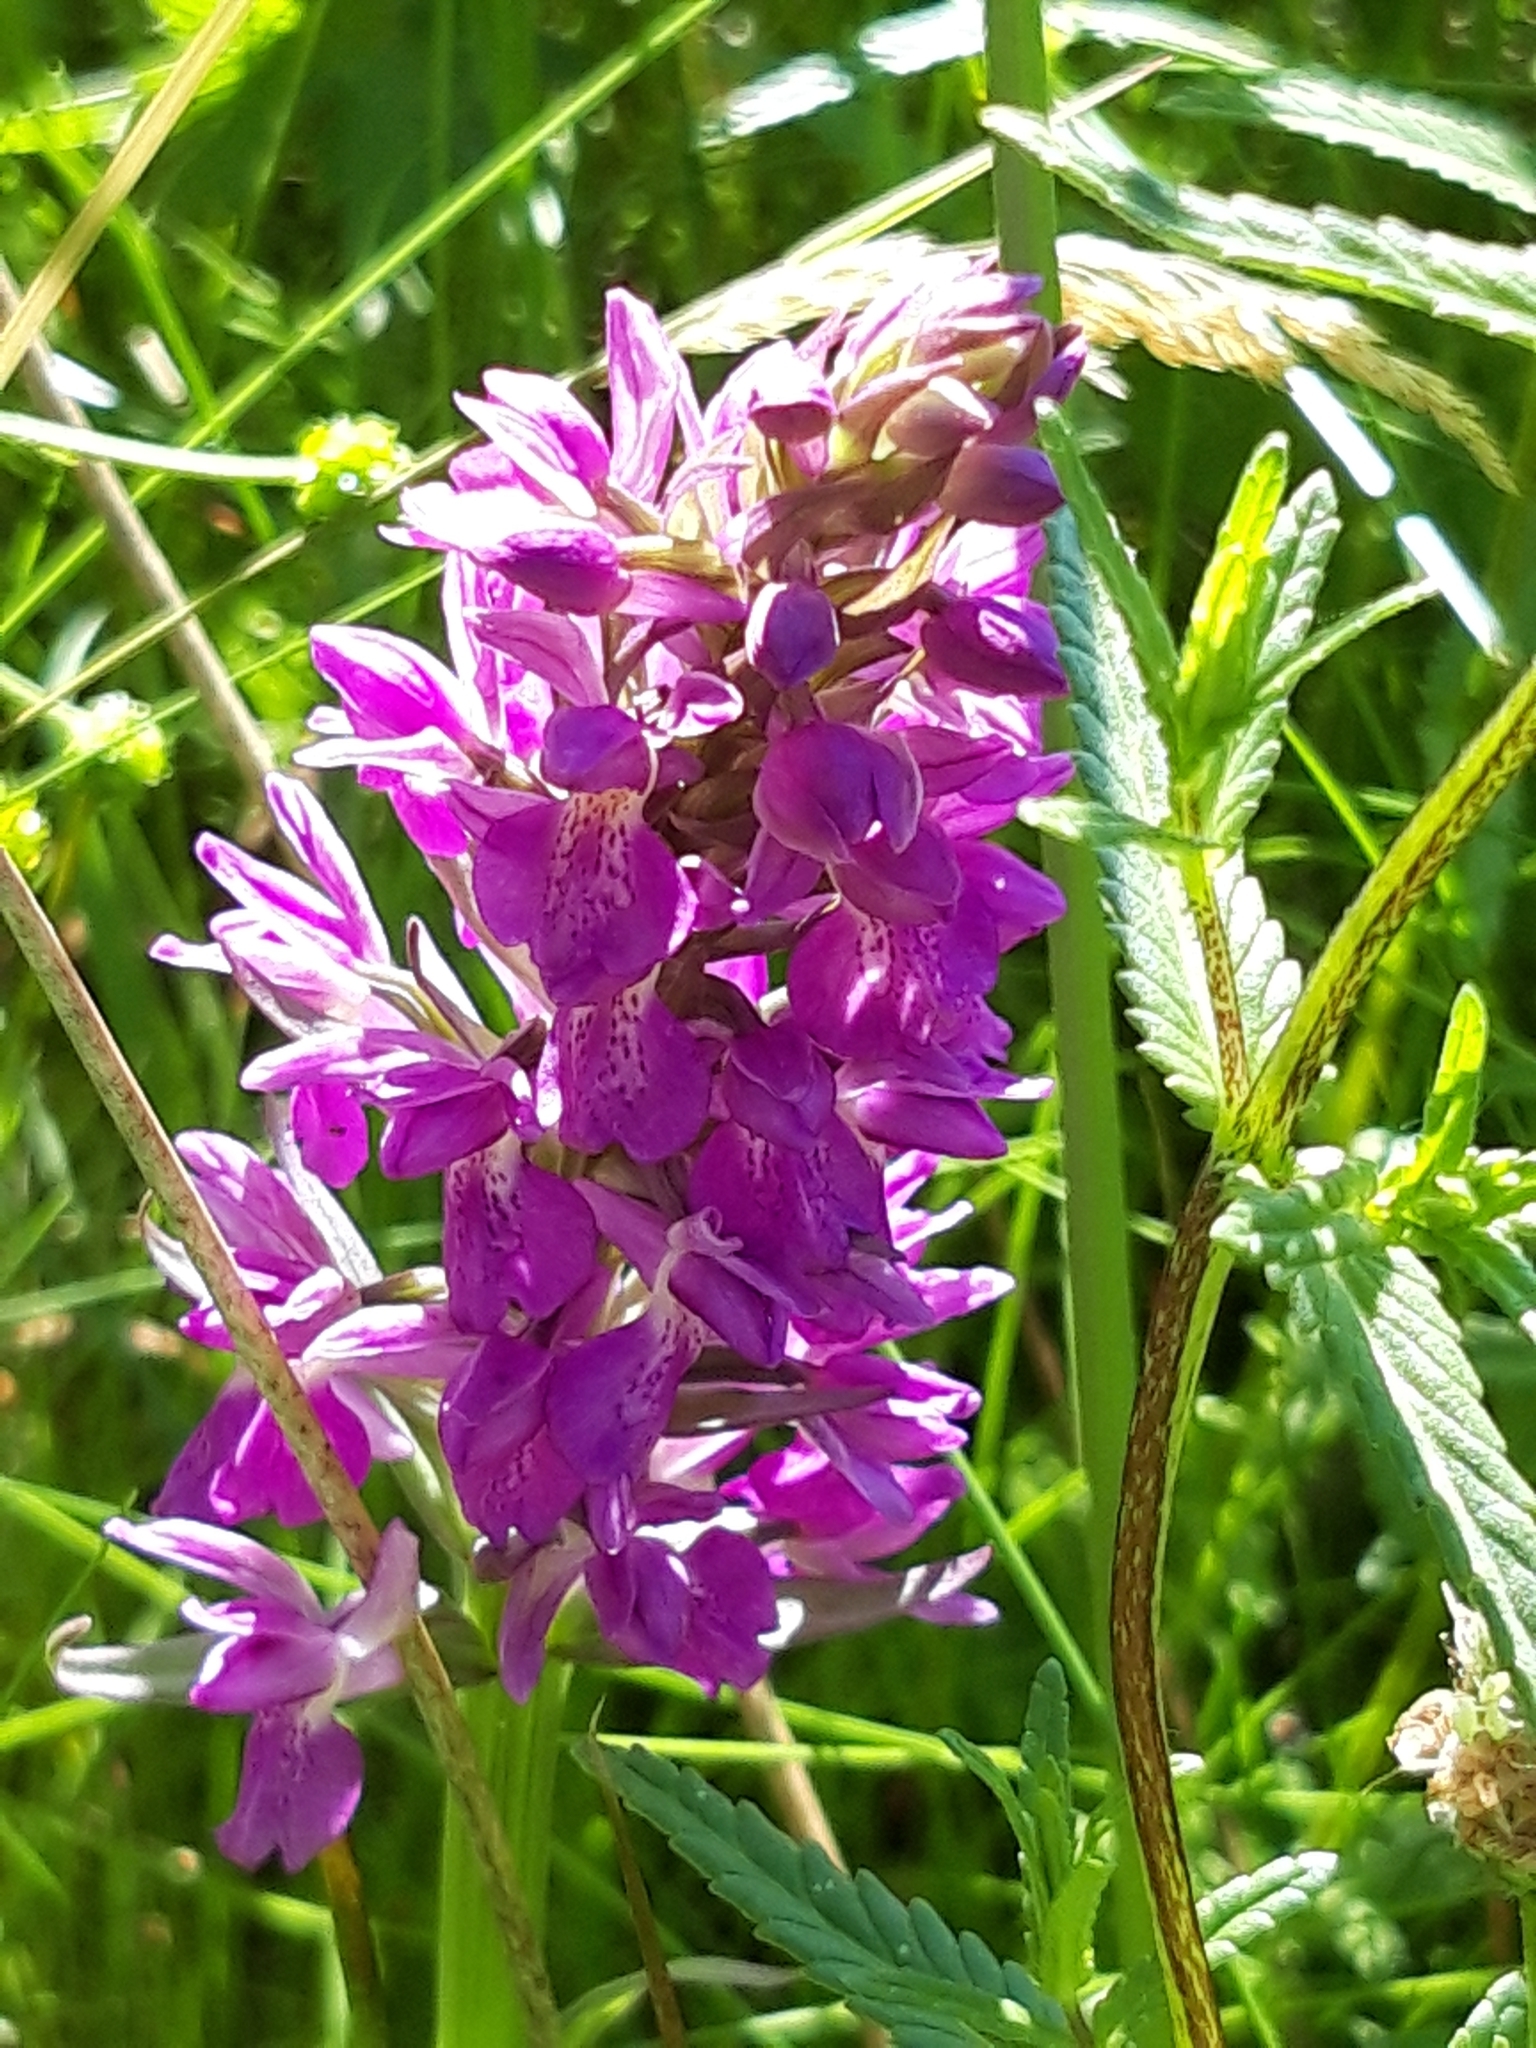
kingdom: Plantae
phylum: Tracheophyta
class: Liliopsida
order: Asparagales
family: Orchidaceae
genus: Dactylorhiza
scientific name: Dactylorhiza majalis
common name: Marsh orchid
